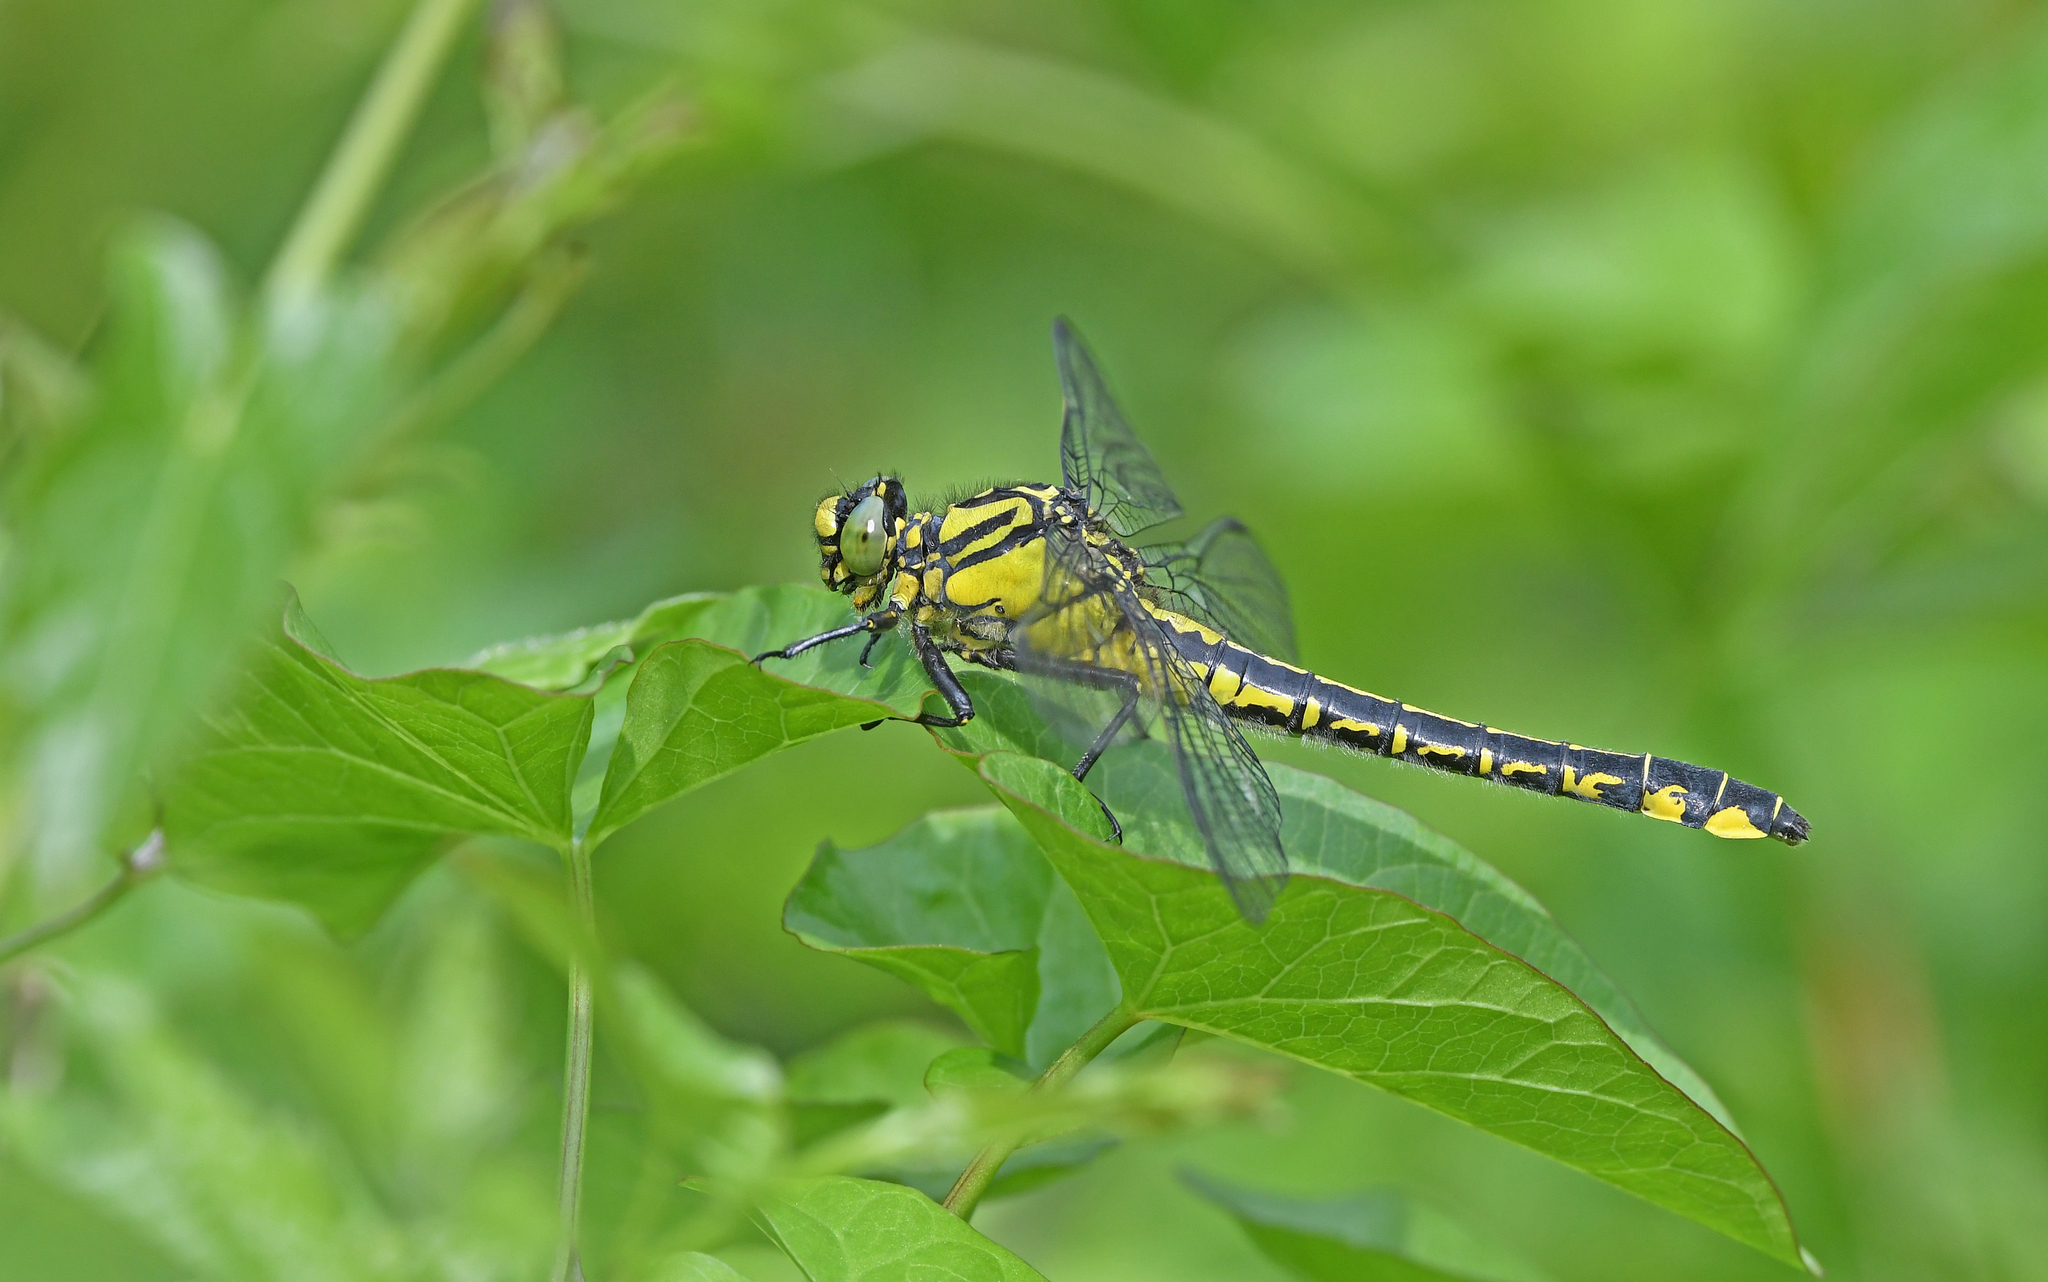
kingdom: Animalia
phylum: Arthropoda
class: Insecta
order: Odonata
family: Gomphidae
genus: Gomphus
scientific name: Gomphus vulgatissimus
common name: Club-tailed dragonfly
